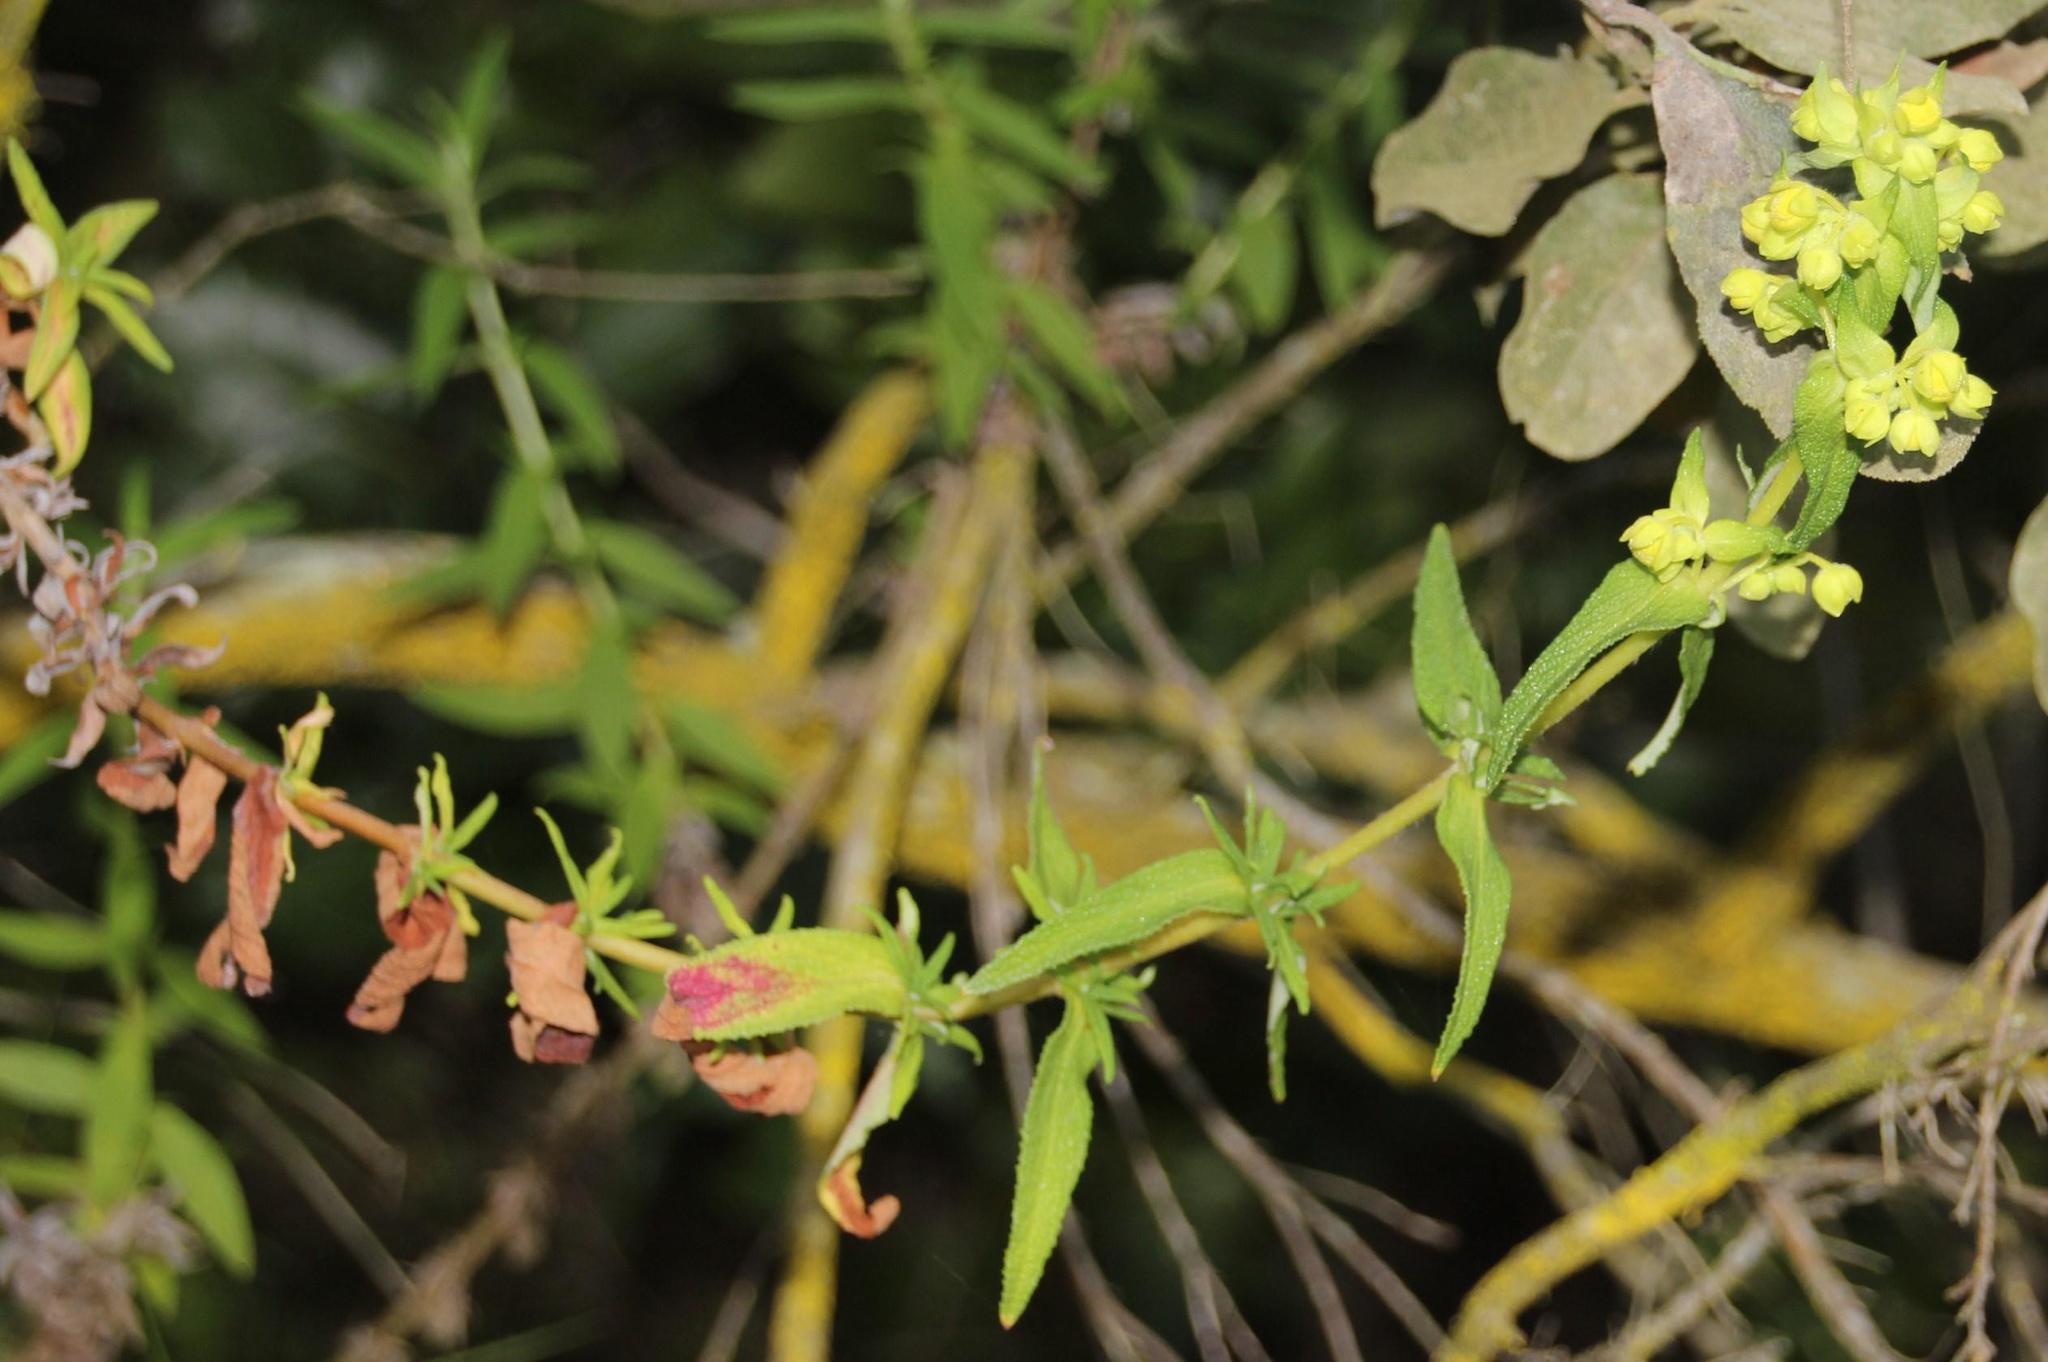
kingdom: Plantae
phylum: Tracheophyta
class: Magnoliopsida
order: Lamiales
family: Calceolariaceae
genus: Calceolaria
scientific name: Calceolaria morisii
